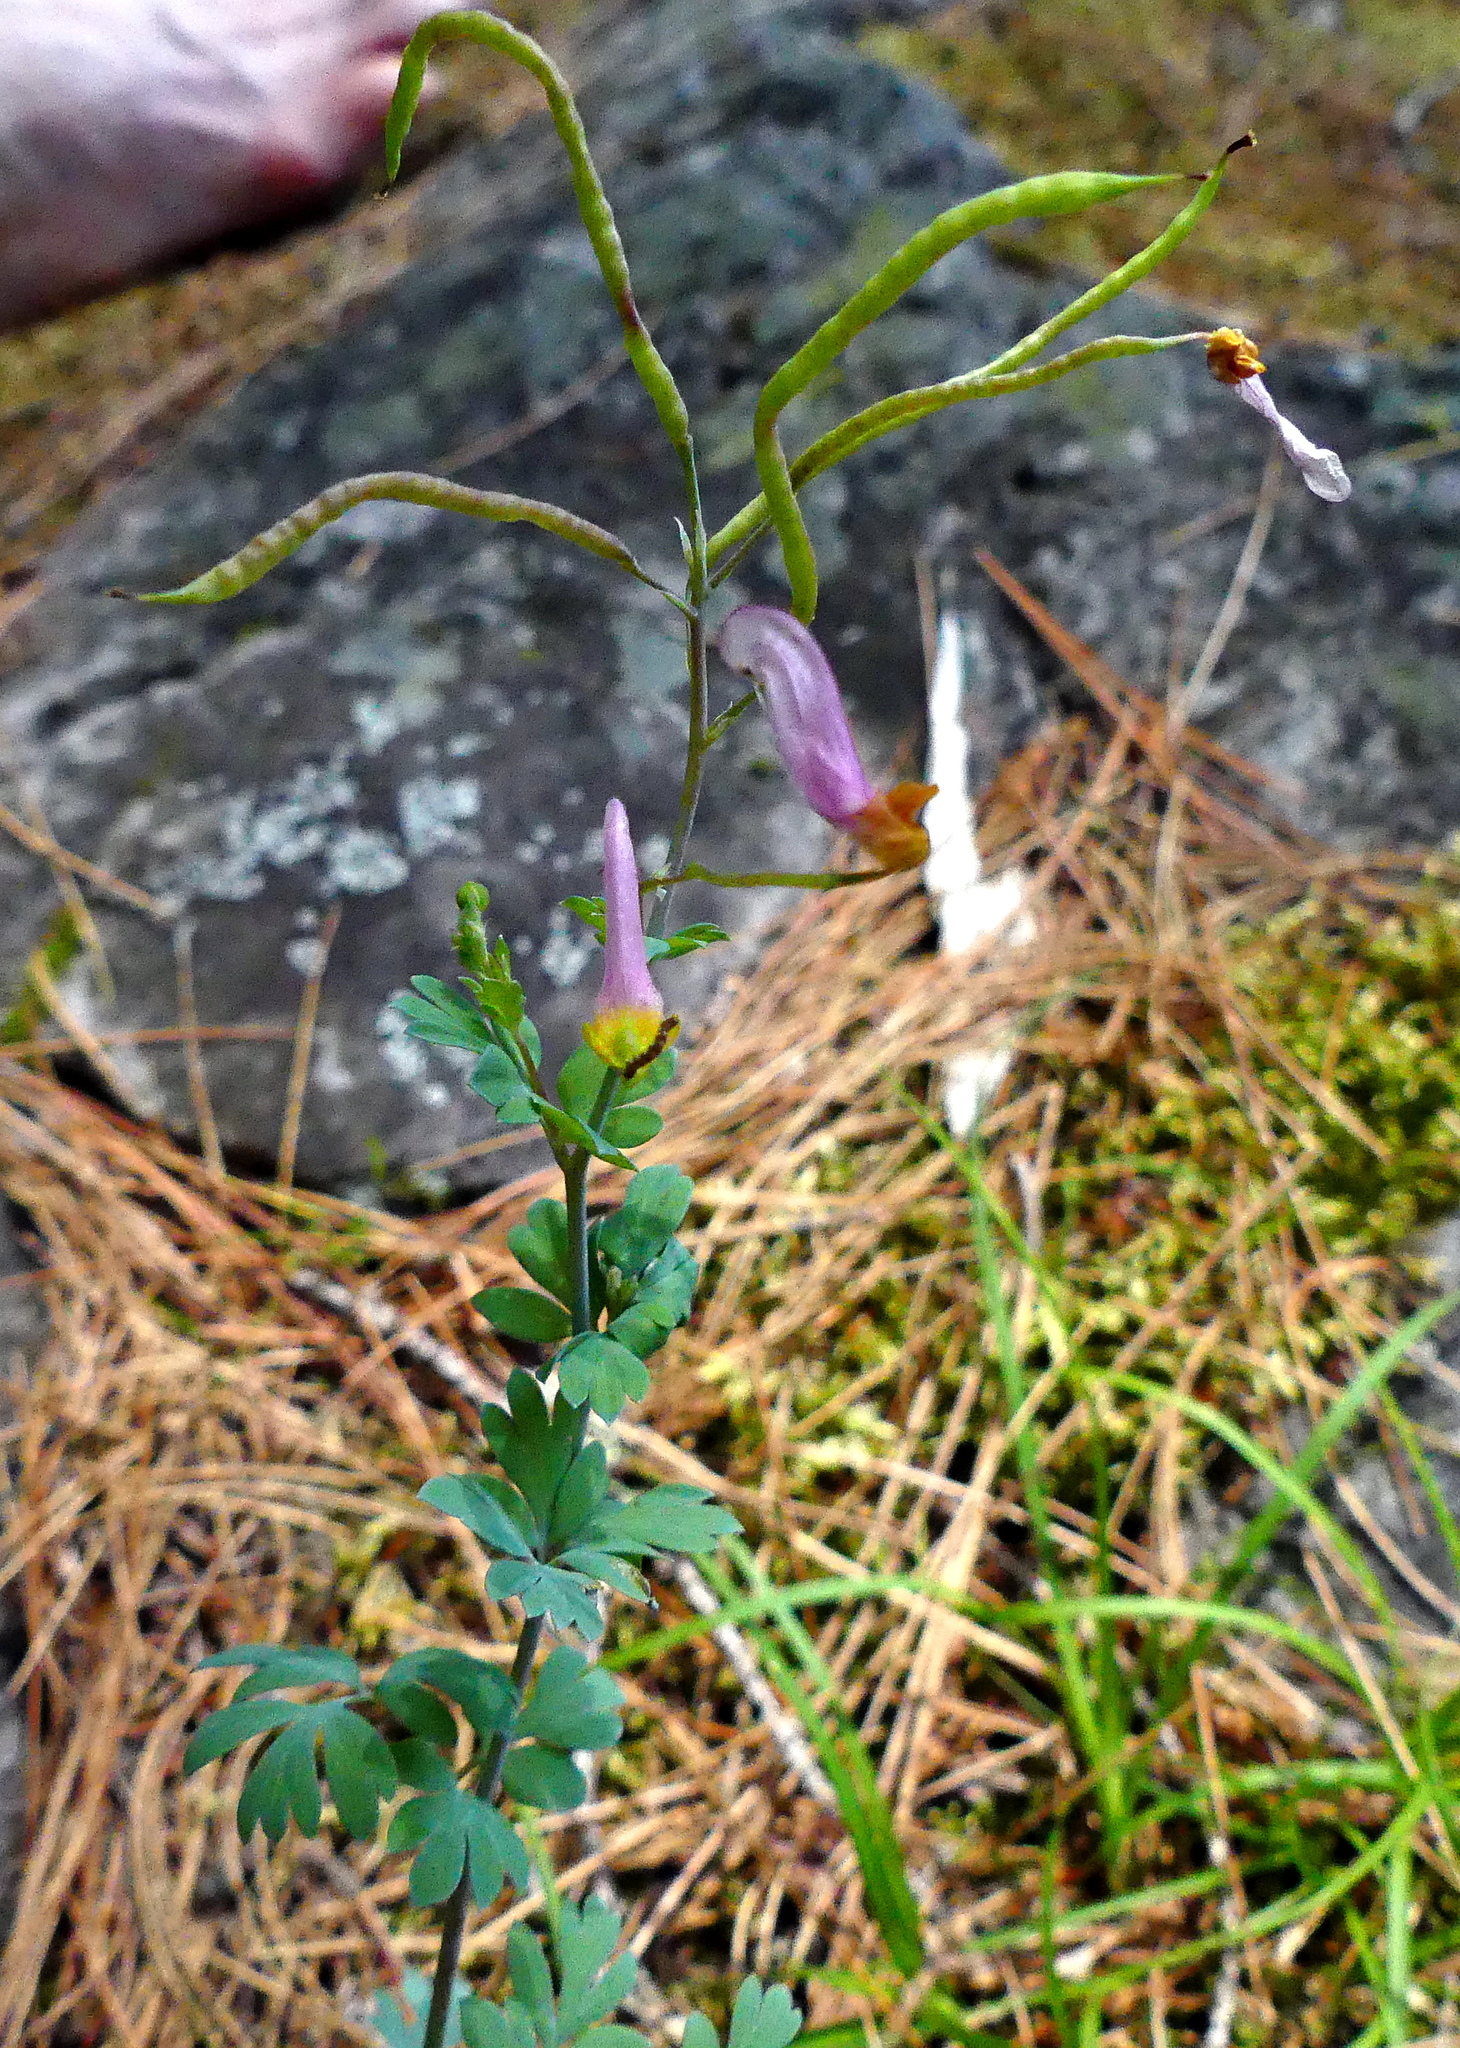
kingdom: Plantae
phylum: Tracheophyta
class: Magnoliopsida
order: Ranunculales
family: Papaveraceae
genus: Capnoides
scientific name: Capnoides sempervirens
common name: Rock harlequin
